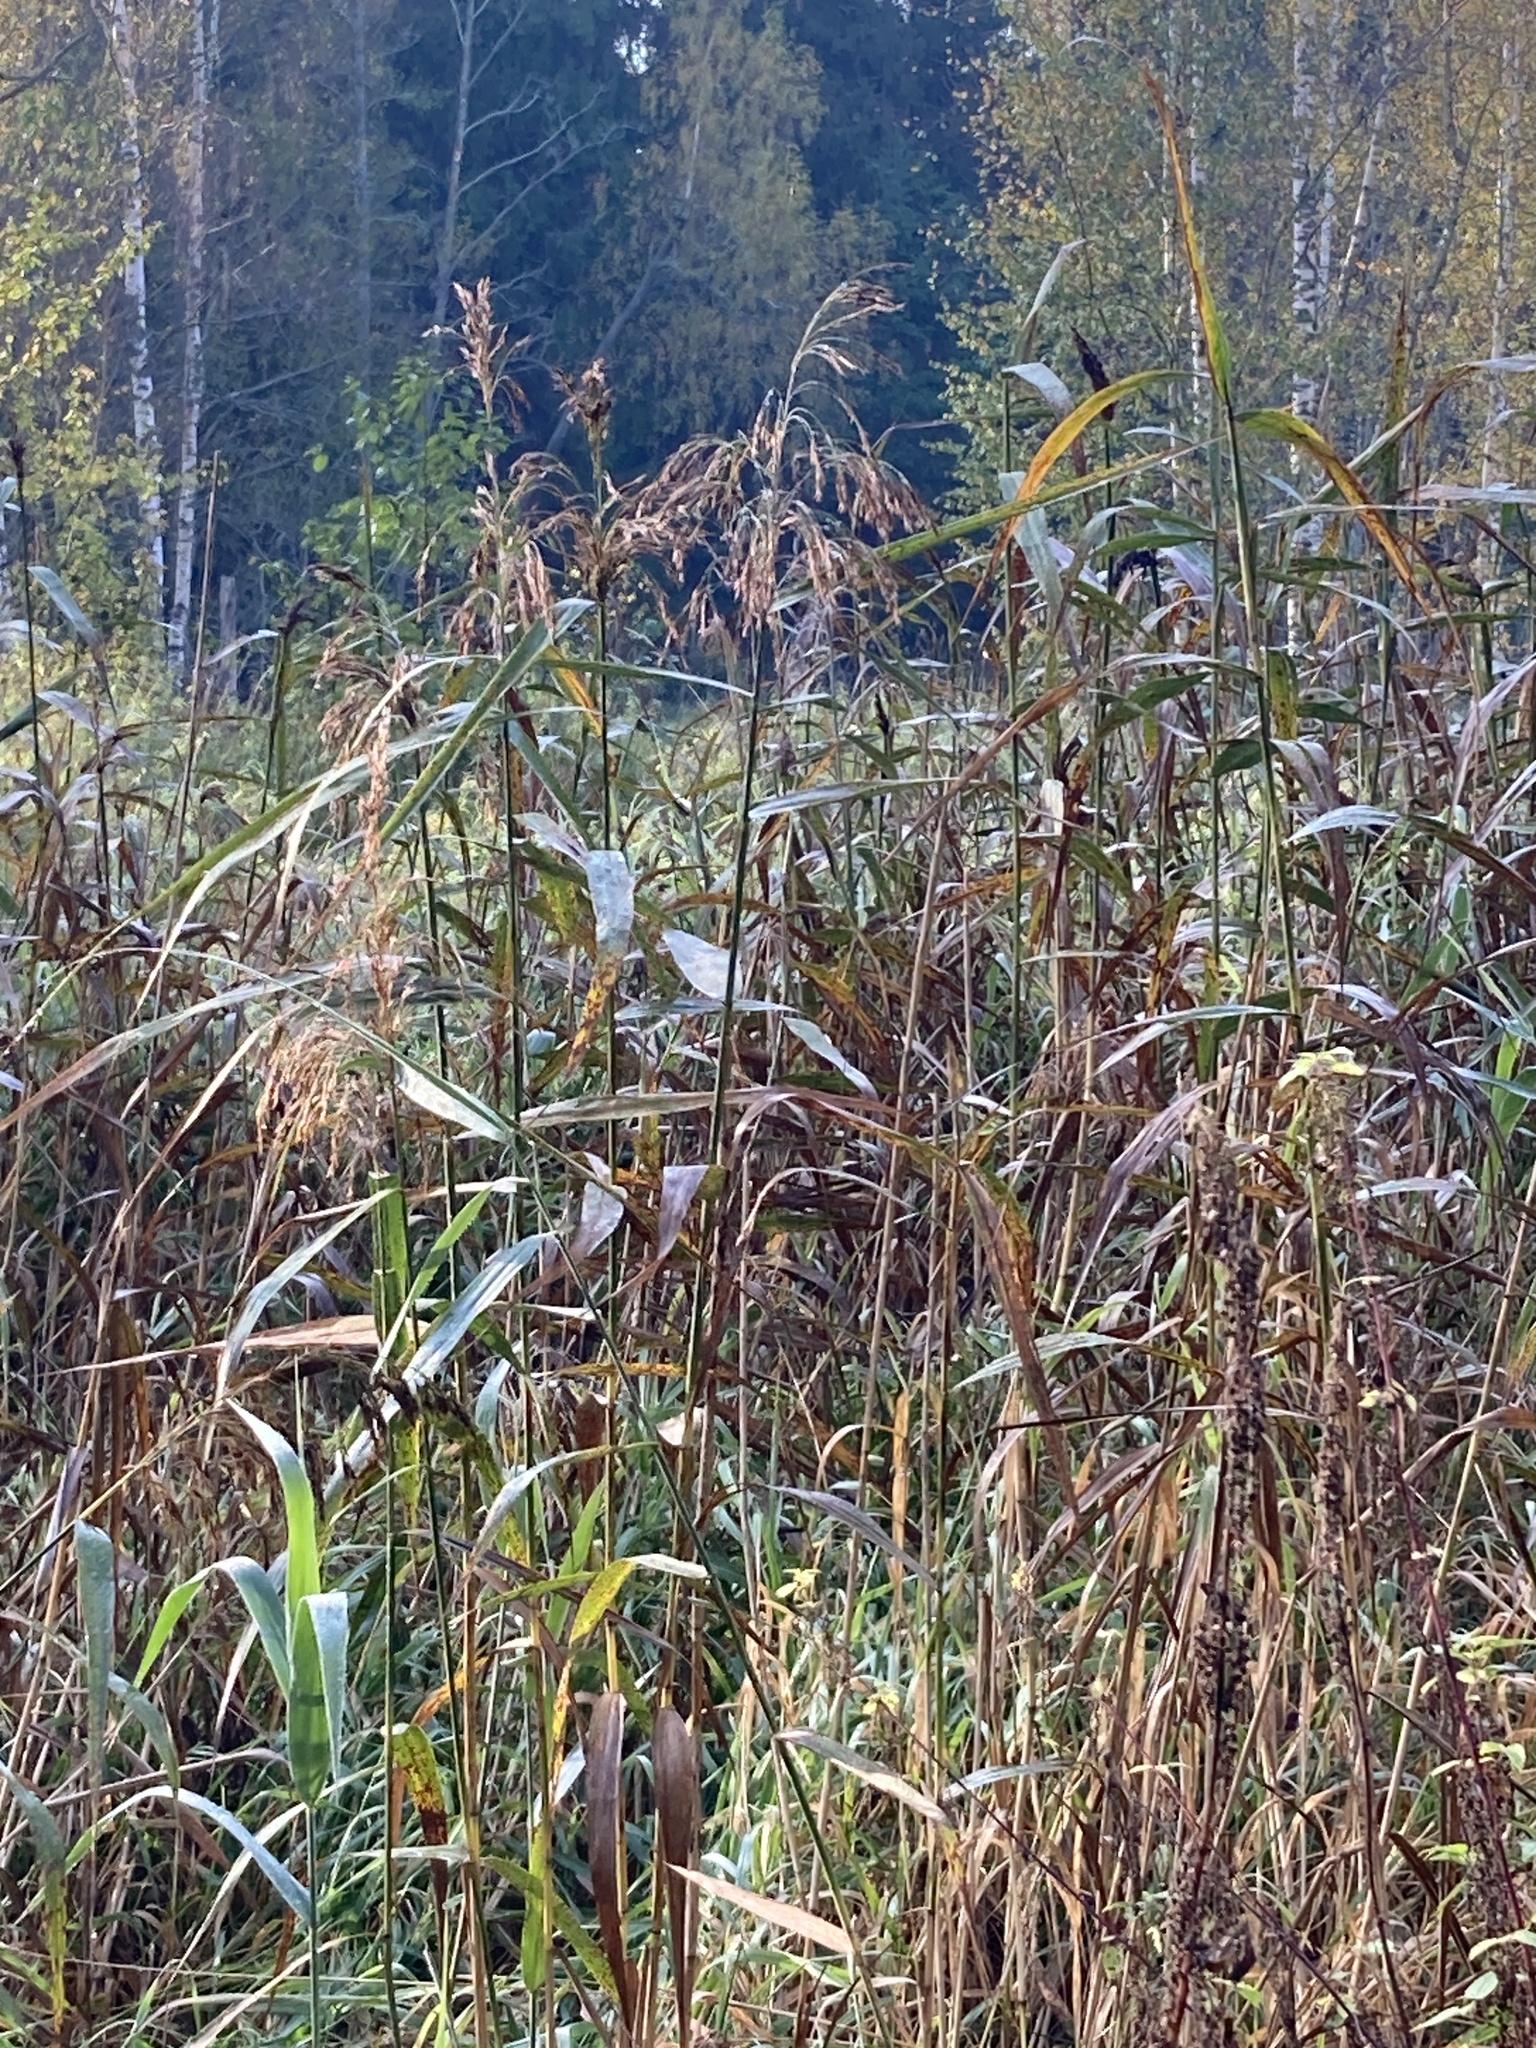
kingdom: Plantae
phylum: Tracheophyta
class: Liliopsida
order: Poales
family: Poaceae
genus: Phragmites
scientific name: Phragmites australis
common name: Common reed
